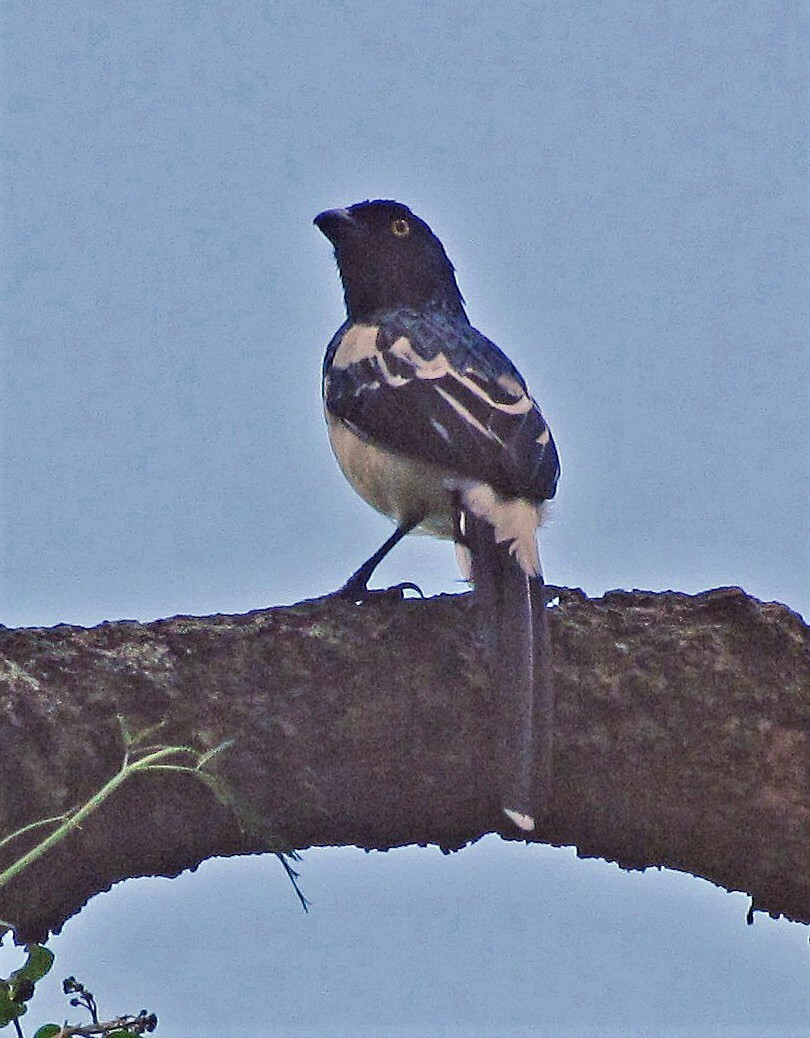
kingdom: Animalia
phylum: Chordata
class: Aves
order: Passeriformes
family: Thraupidae
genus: Cissopis
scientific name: Cissopis leverianus
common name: Magpie tanager
